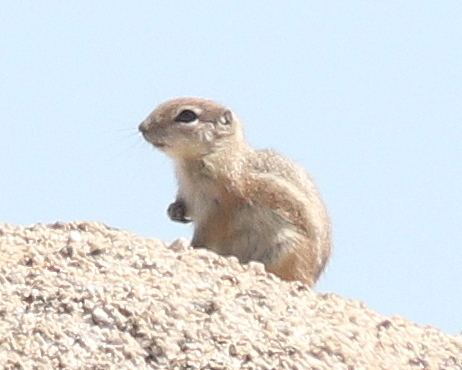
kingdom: Animalia
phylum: Chordata
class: Mammalia
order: Rodentia
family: Sciuridae
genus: Ammospermophilus
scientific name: Ammospermophilus leucurus
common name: White-tailed antelope squirrel
